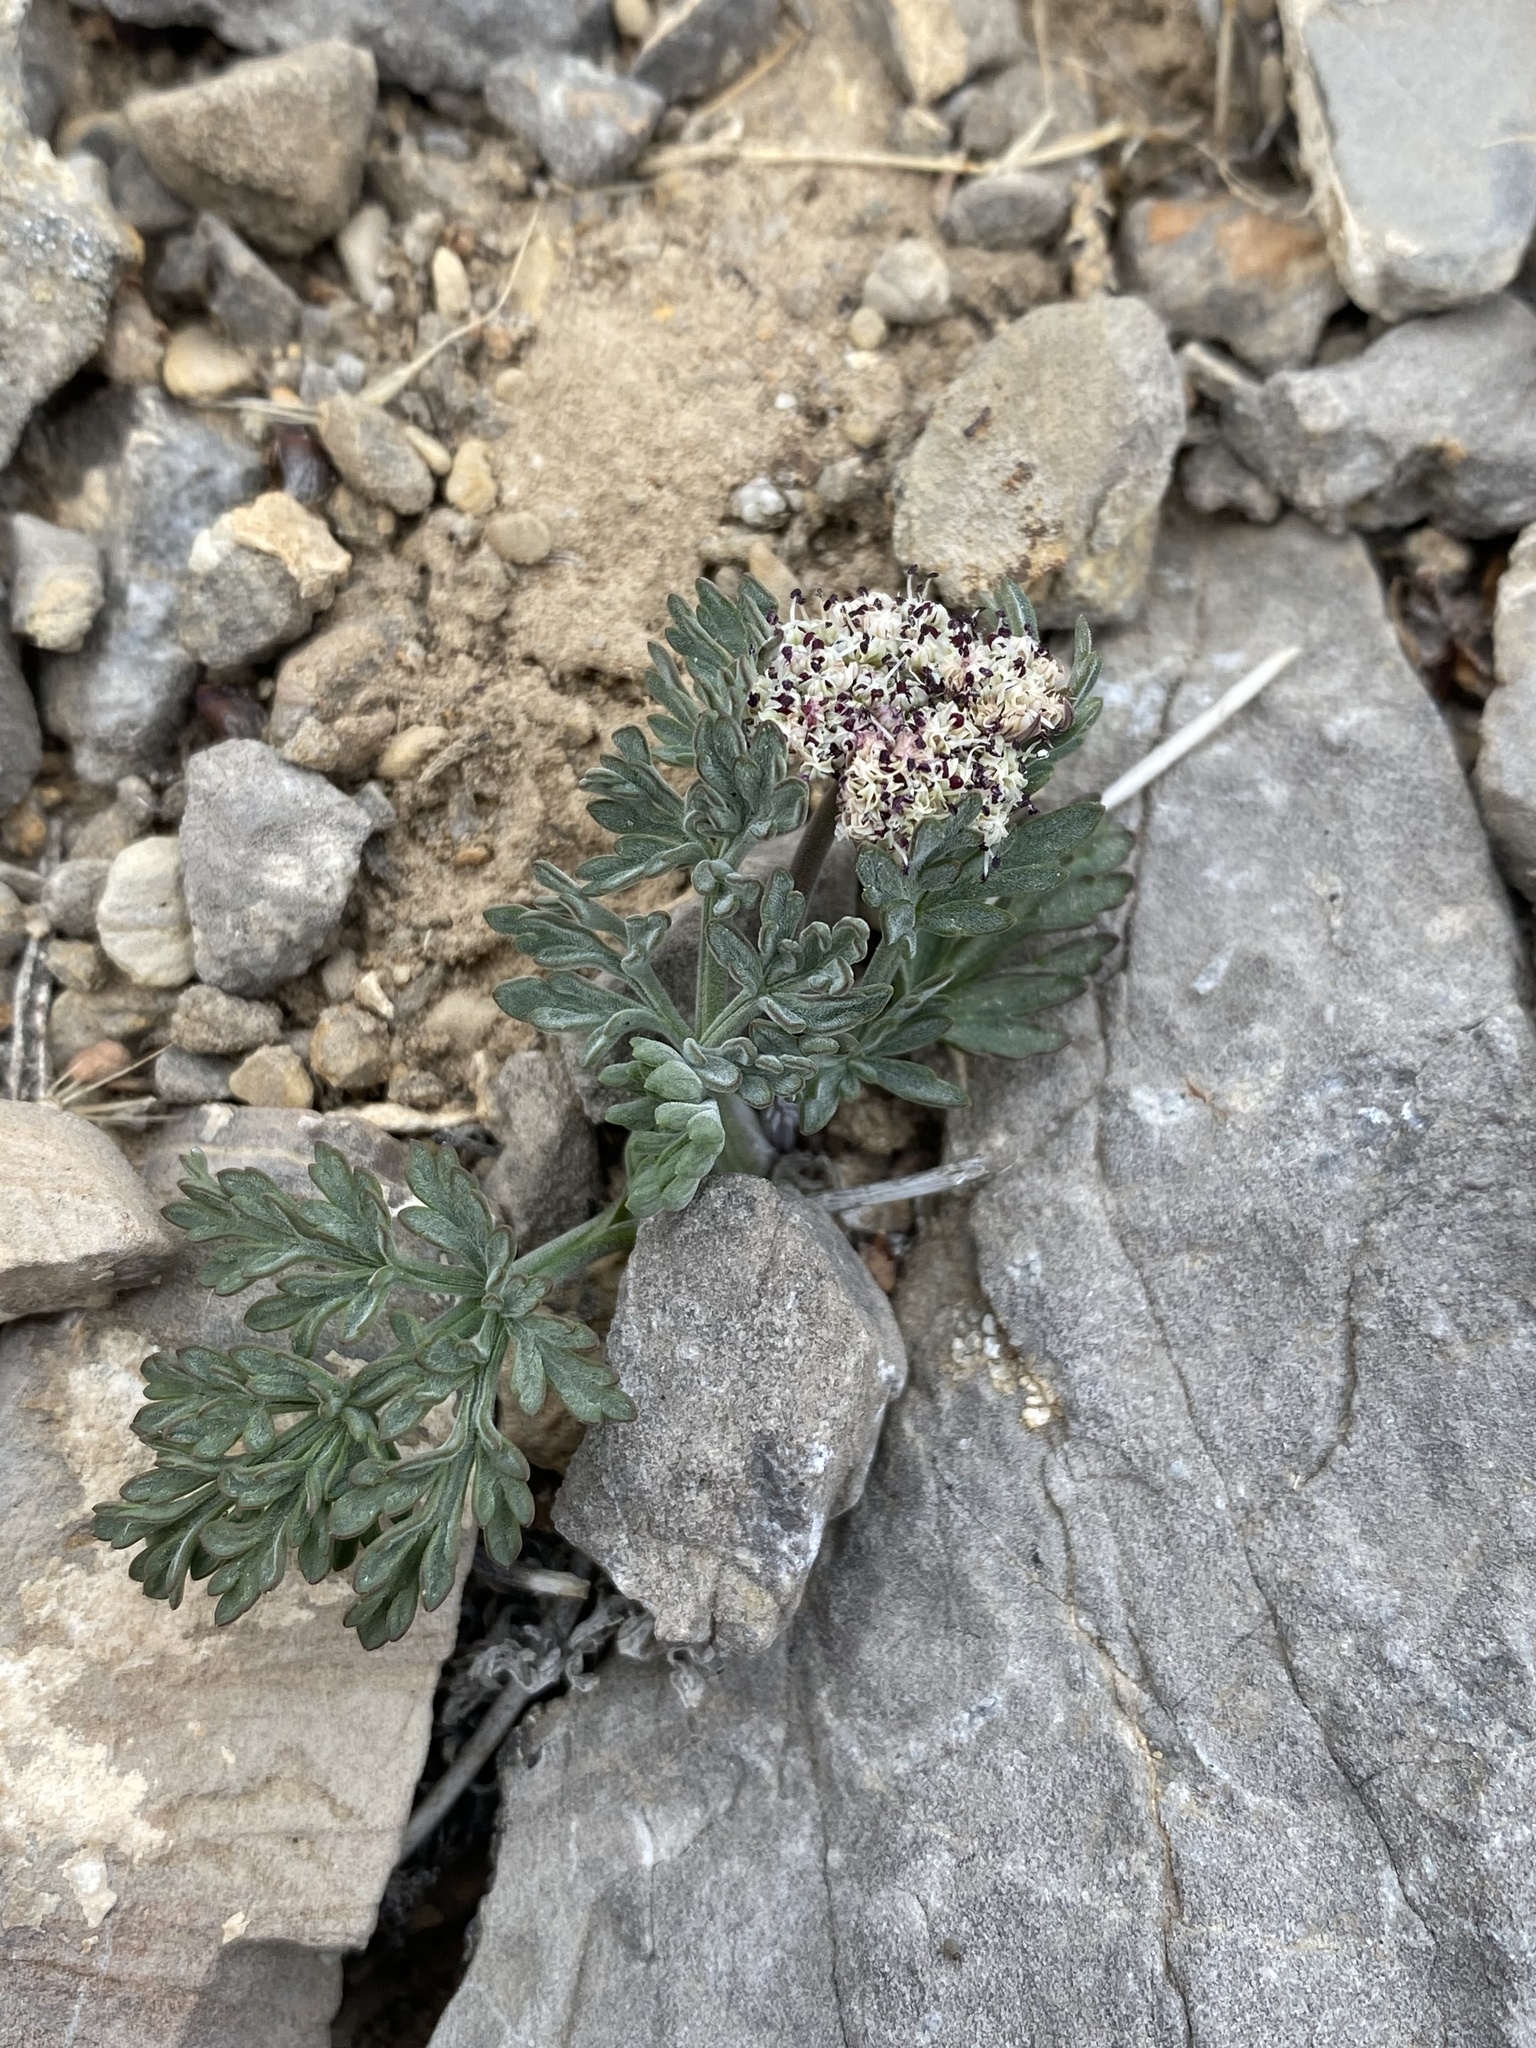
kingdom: Plantae
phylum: Tracheophyta
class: Magnoliopsida
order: Apiales
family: Apiaceae
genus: Lomatium
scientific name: Lomatium nevadense
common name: Nevada lomatium
